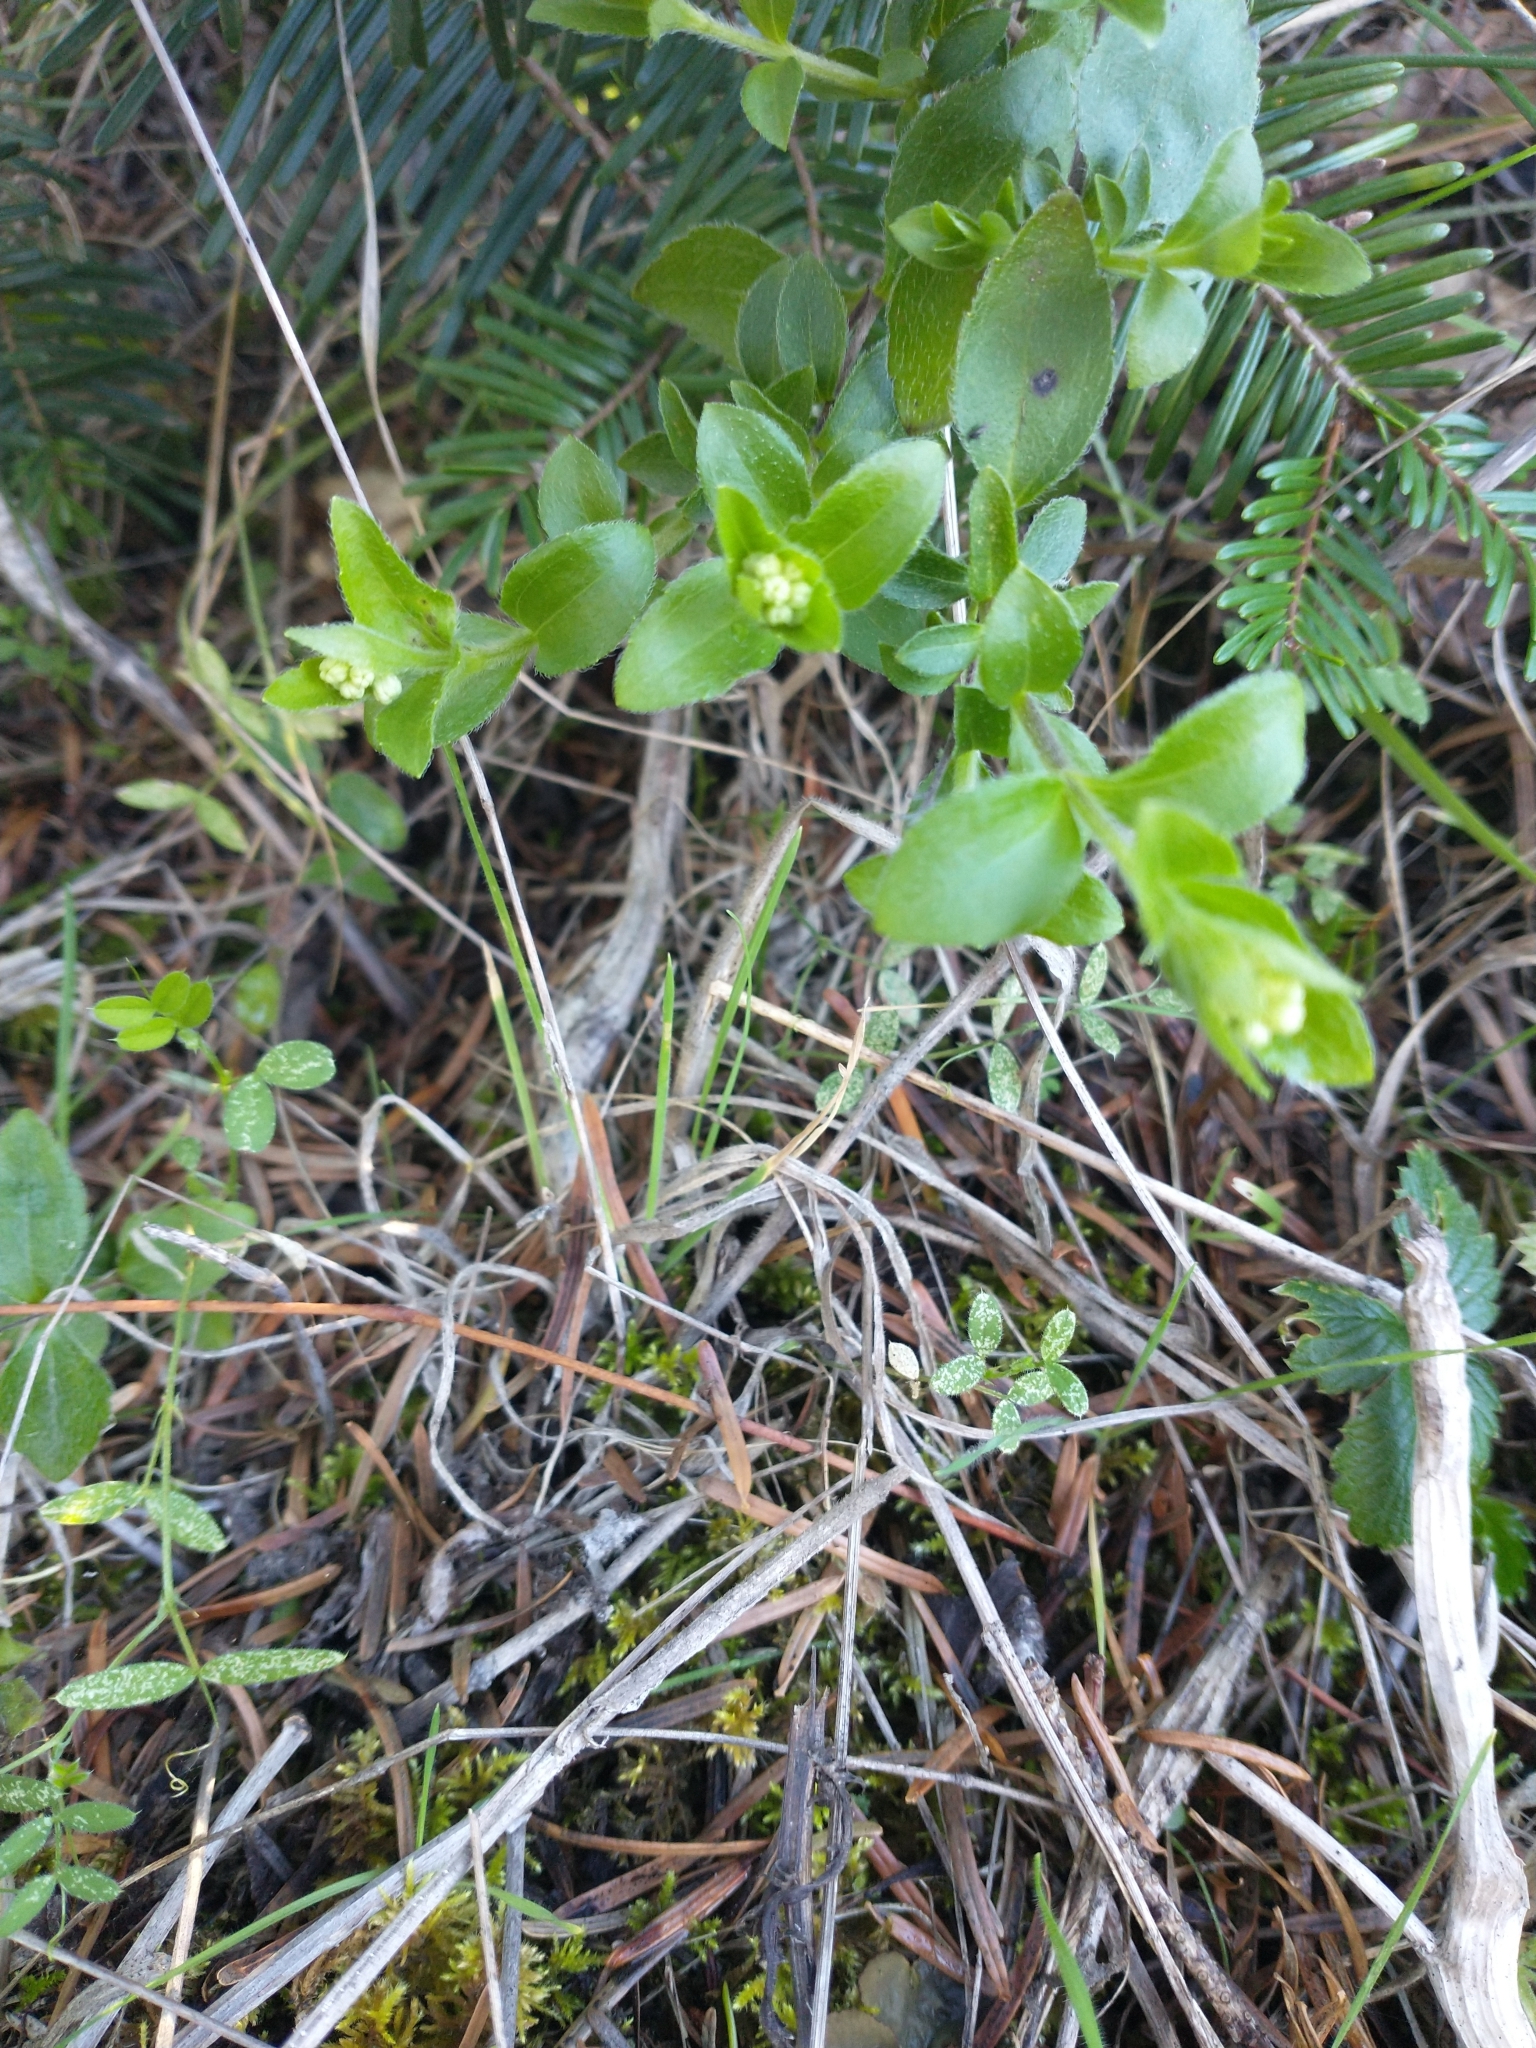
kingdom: Plantae
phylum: Tracheophyta
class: Magnoliopsida
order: Cornales
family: Hydrangeaceae
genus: Whipplea
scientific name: Whipplea modesta
